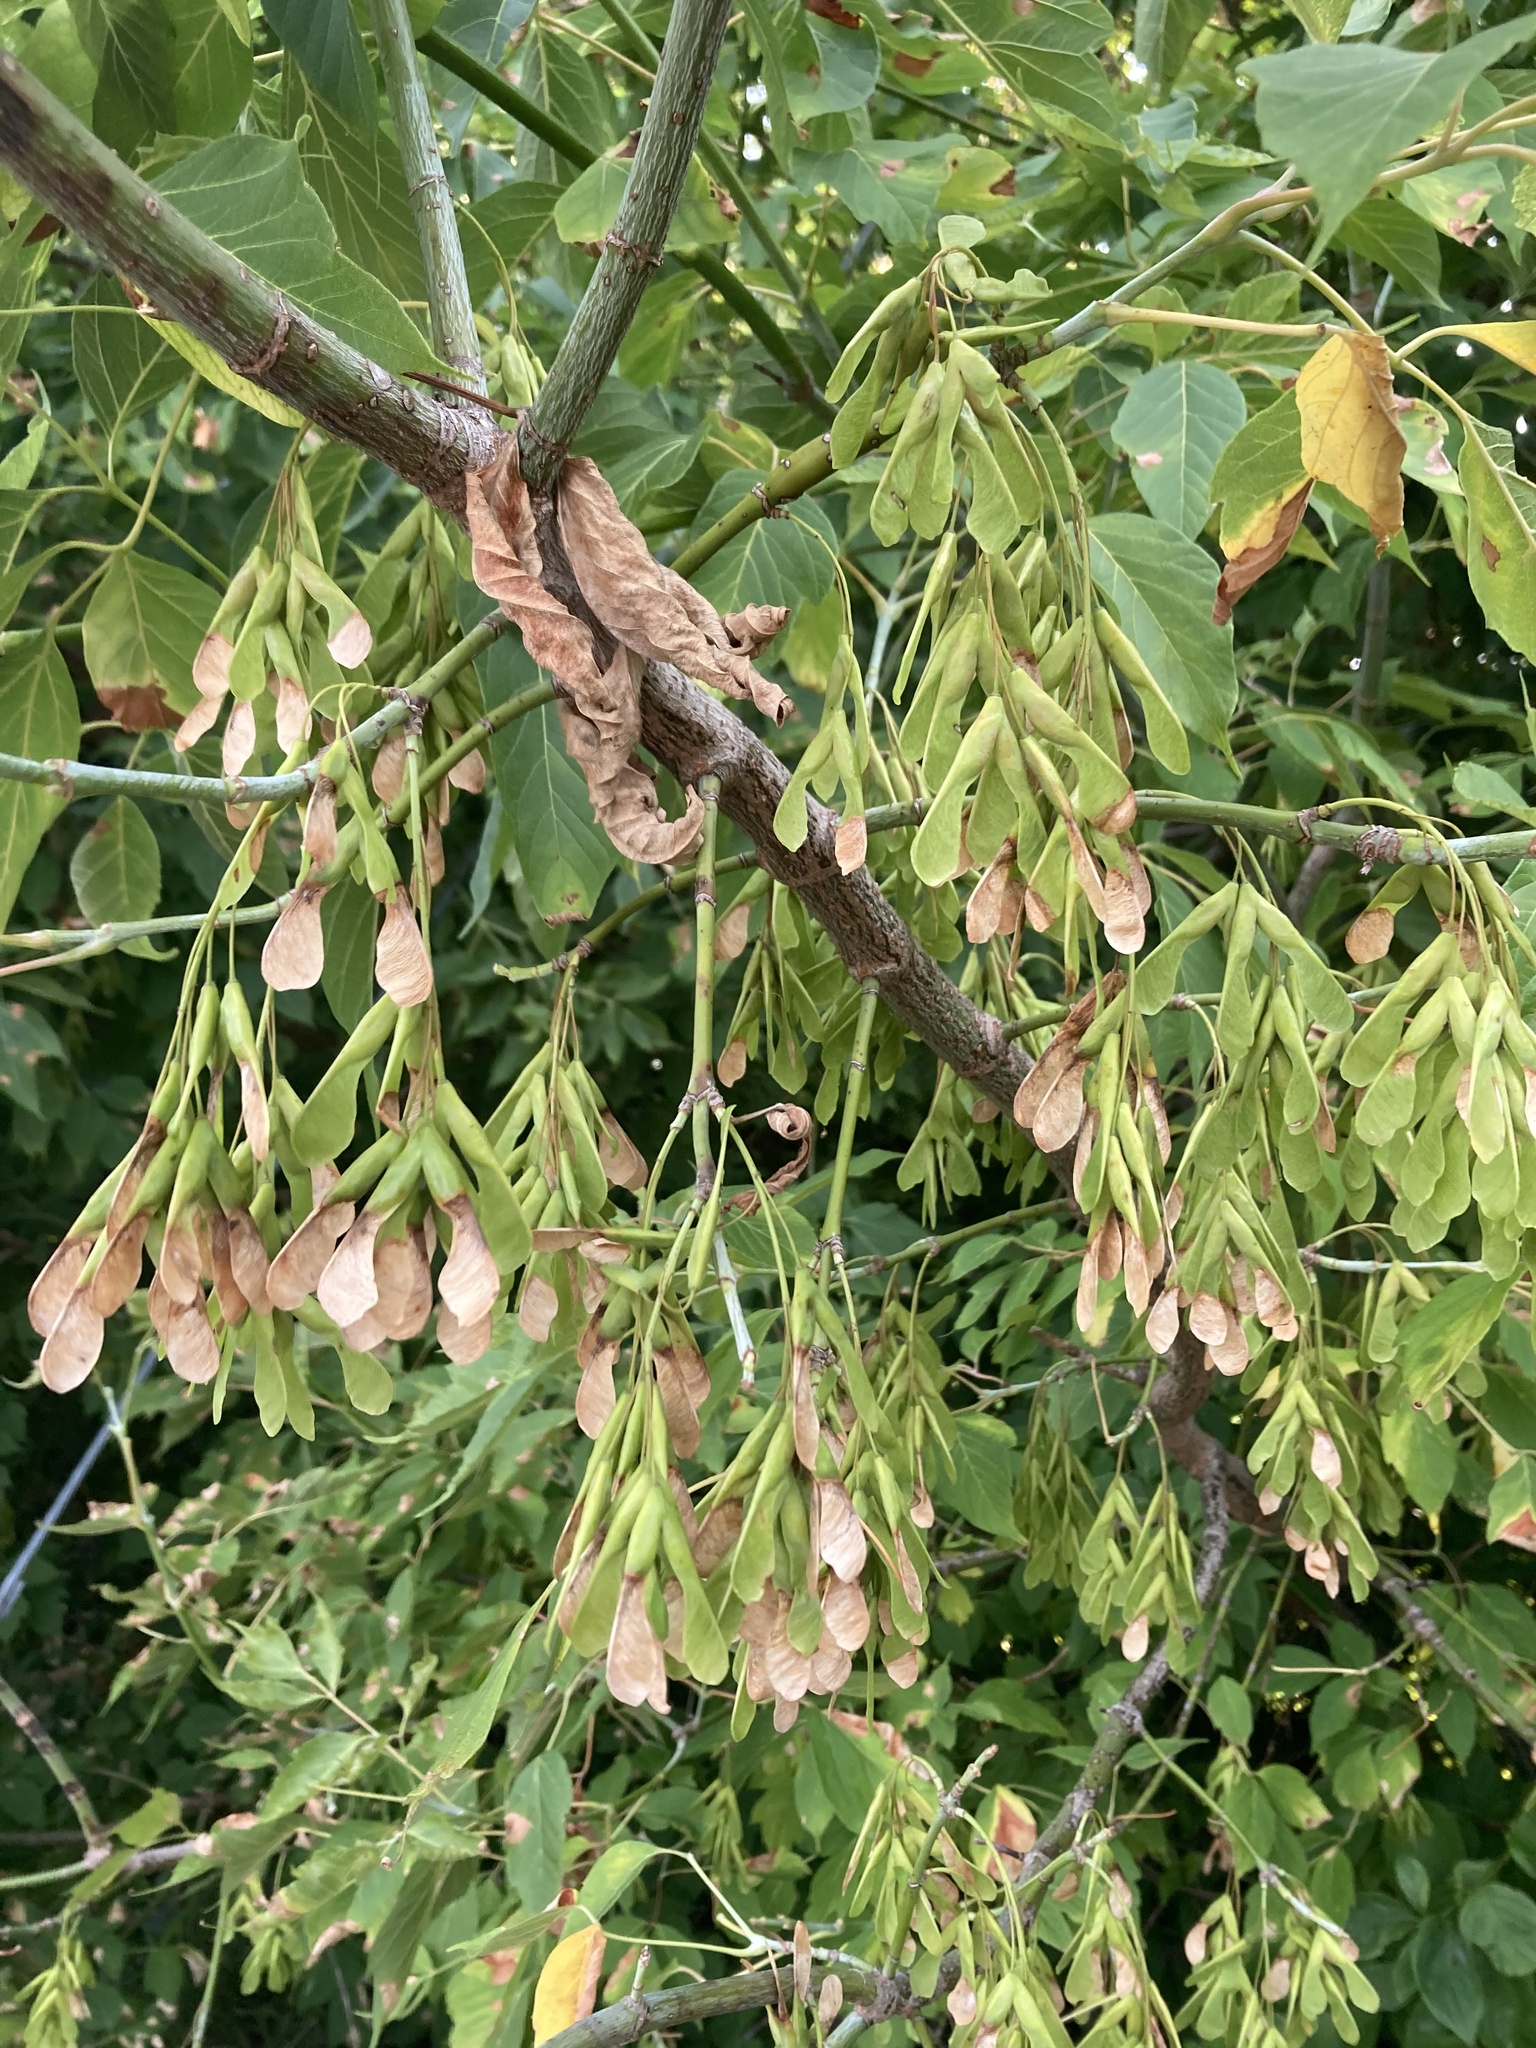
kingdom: Plantae
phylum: Tracheophyta
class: Magnoliopsida
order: Sapindales
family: Sapindaceae
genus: Acer
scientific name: Acer negundo
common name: Ashleaf maple
